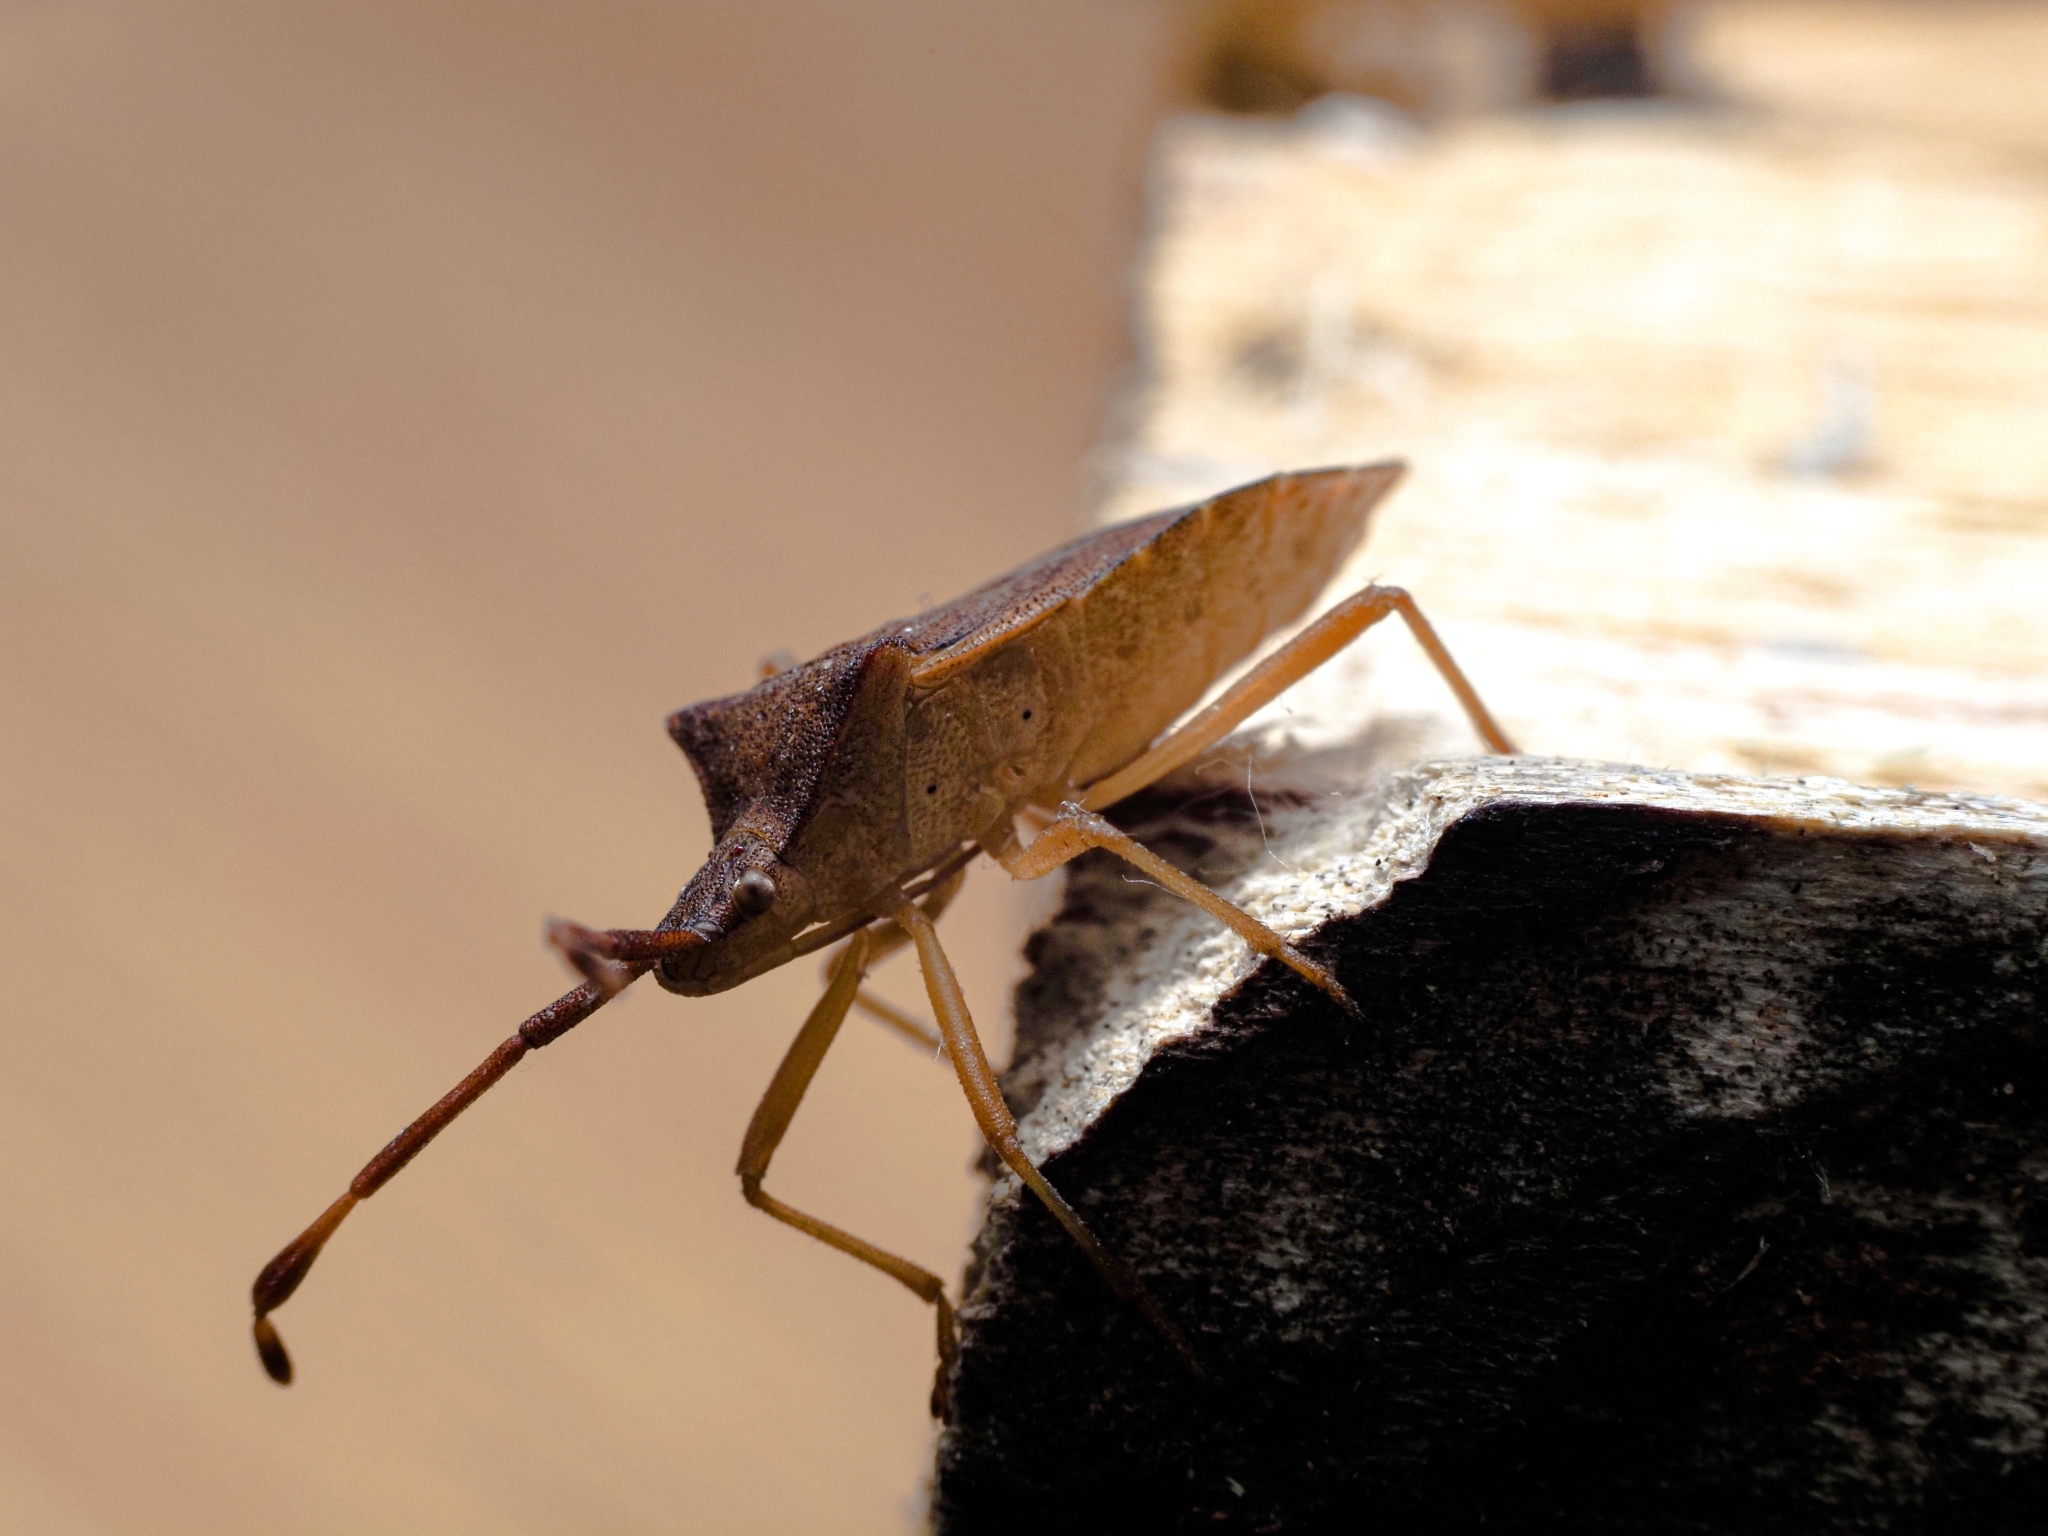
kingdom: Animalia
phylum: Arthropoda
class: Insecta
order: Hemiptera
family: Coreidae
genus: Gonocerus
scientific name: Gonocerus acuteangulatus
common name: Box bug
